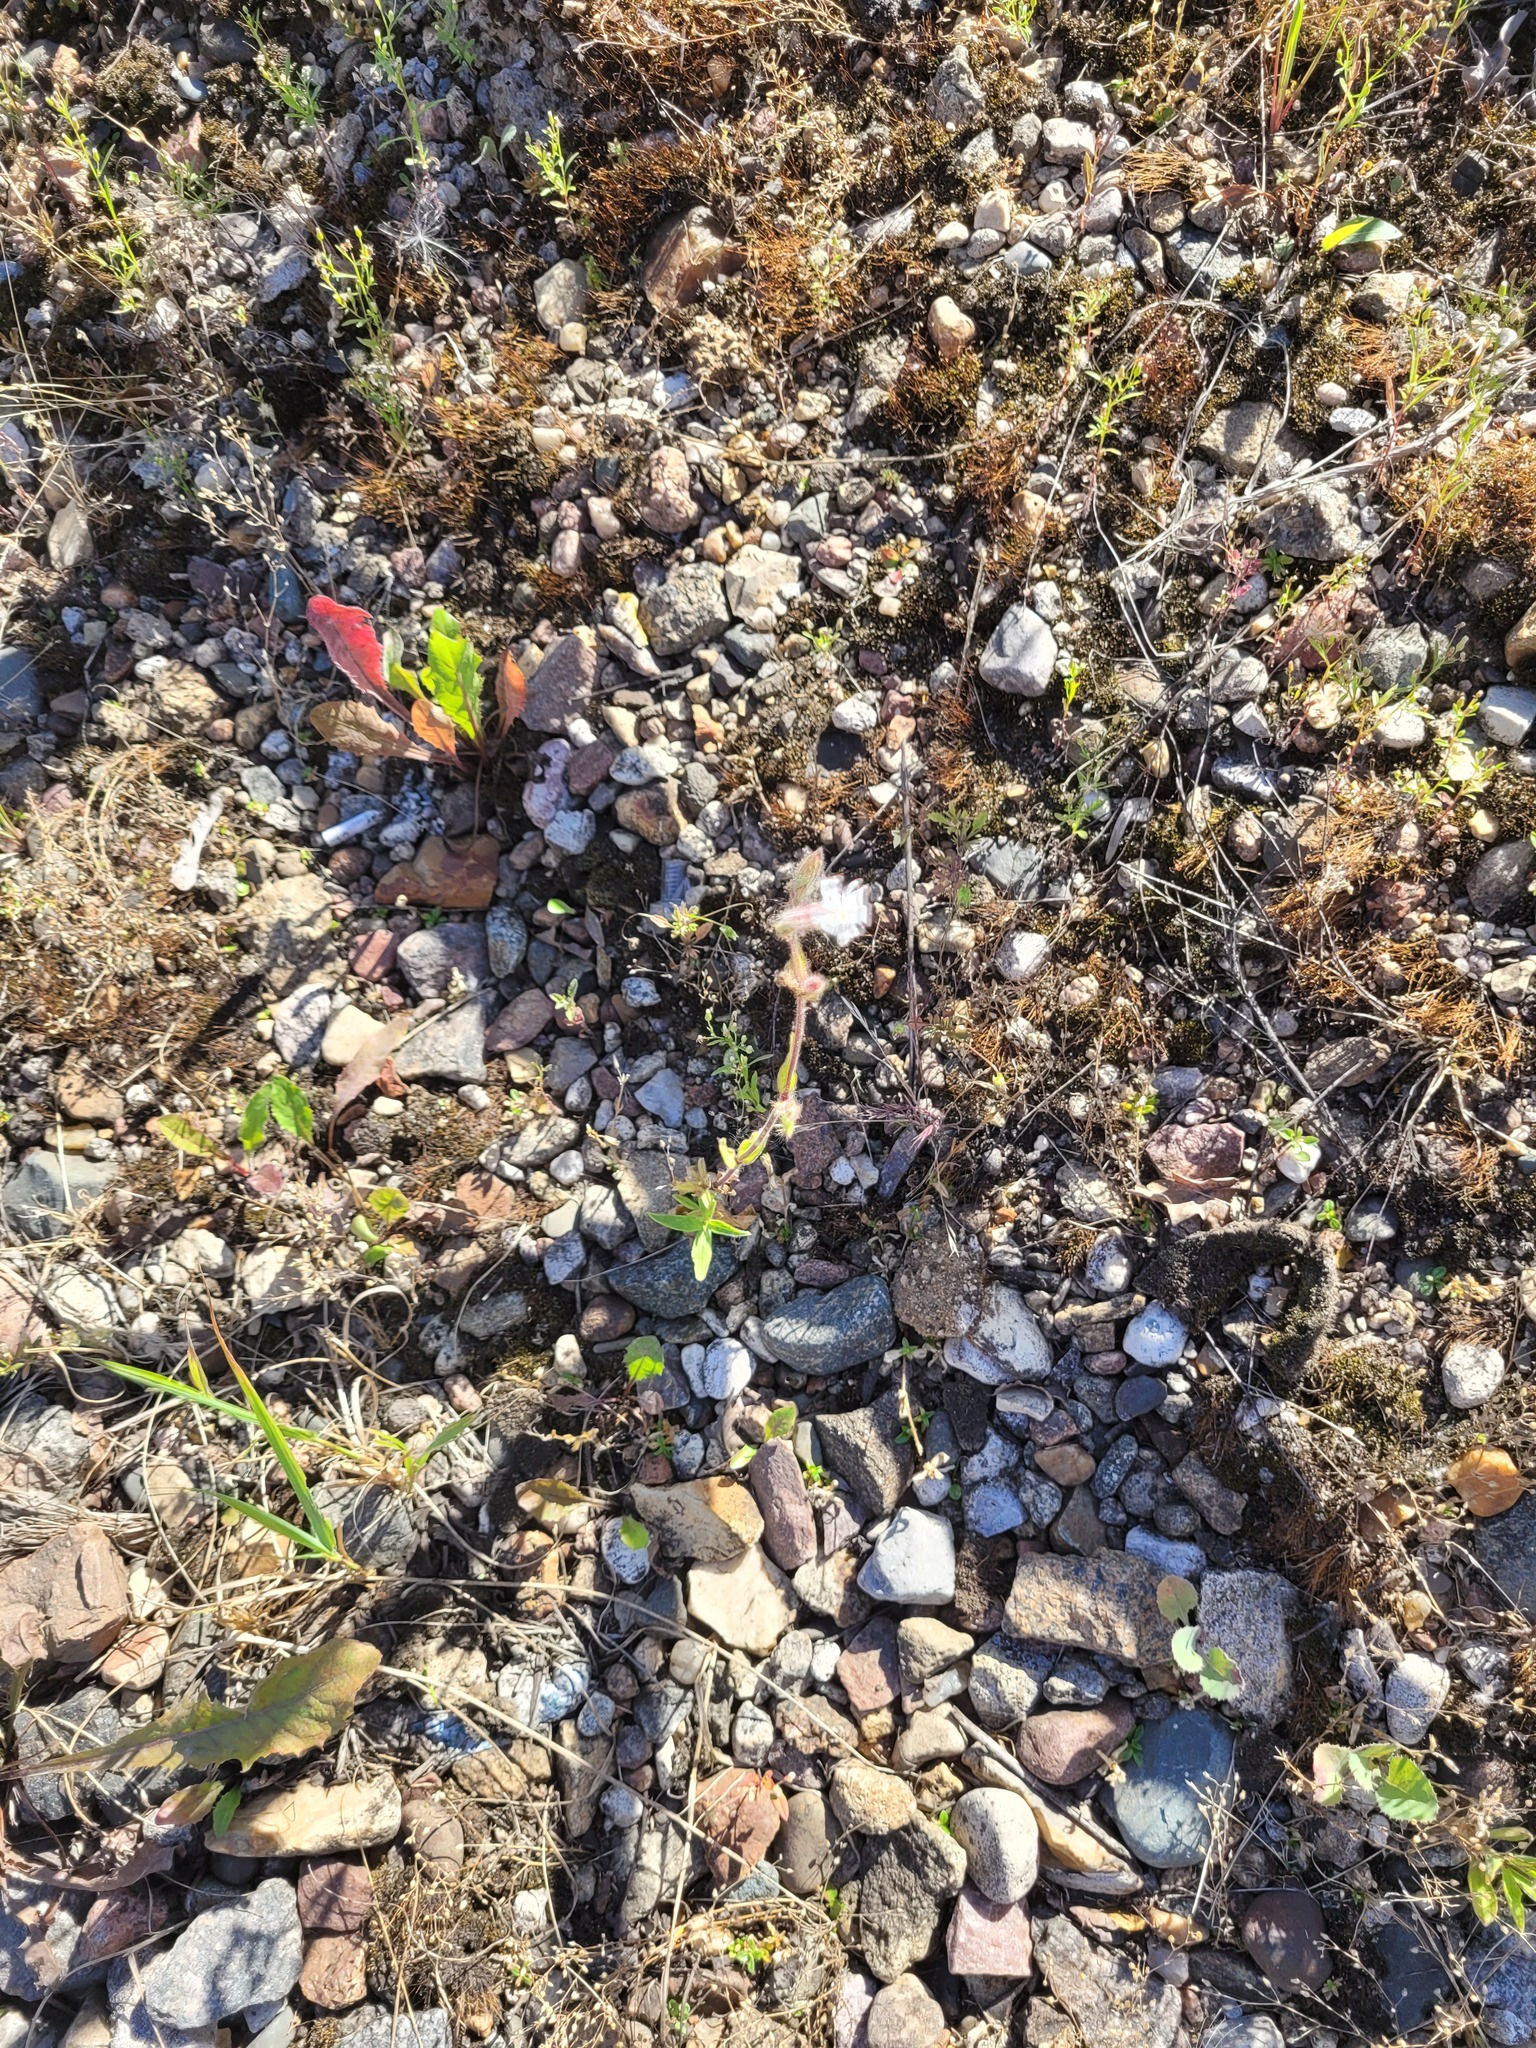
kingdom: Plantae
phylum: Tracheophyta
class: Magnoliopsida
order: Caryophyllales
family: Caryophyllaceae
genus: Silene
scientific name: Silene latifolia
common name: White campion
